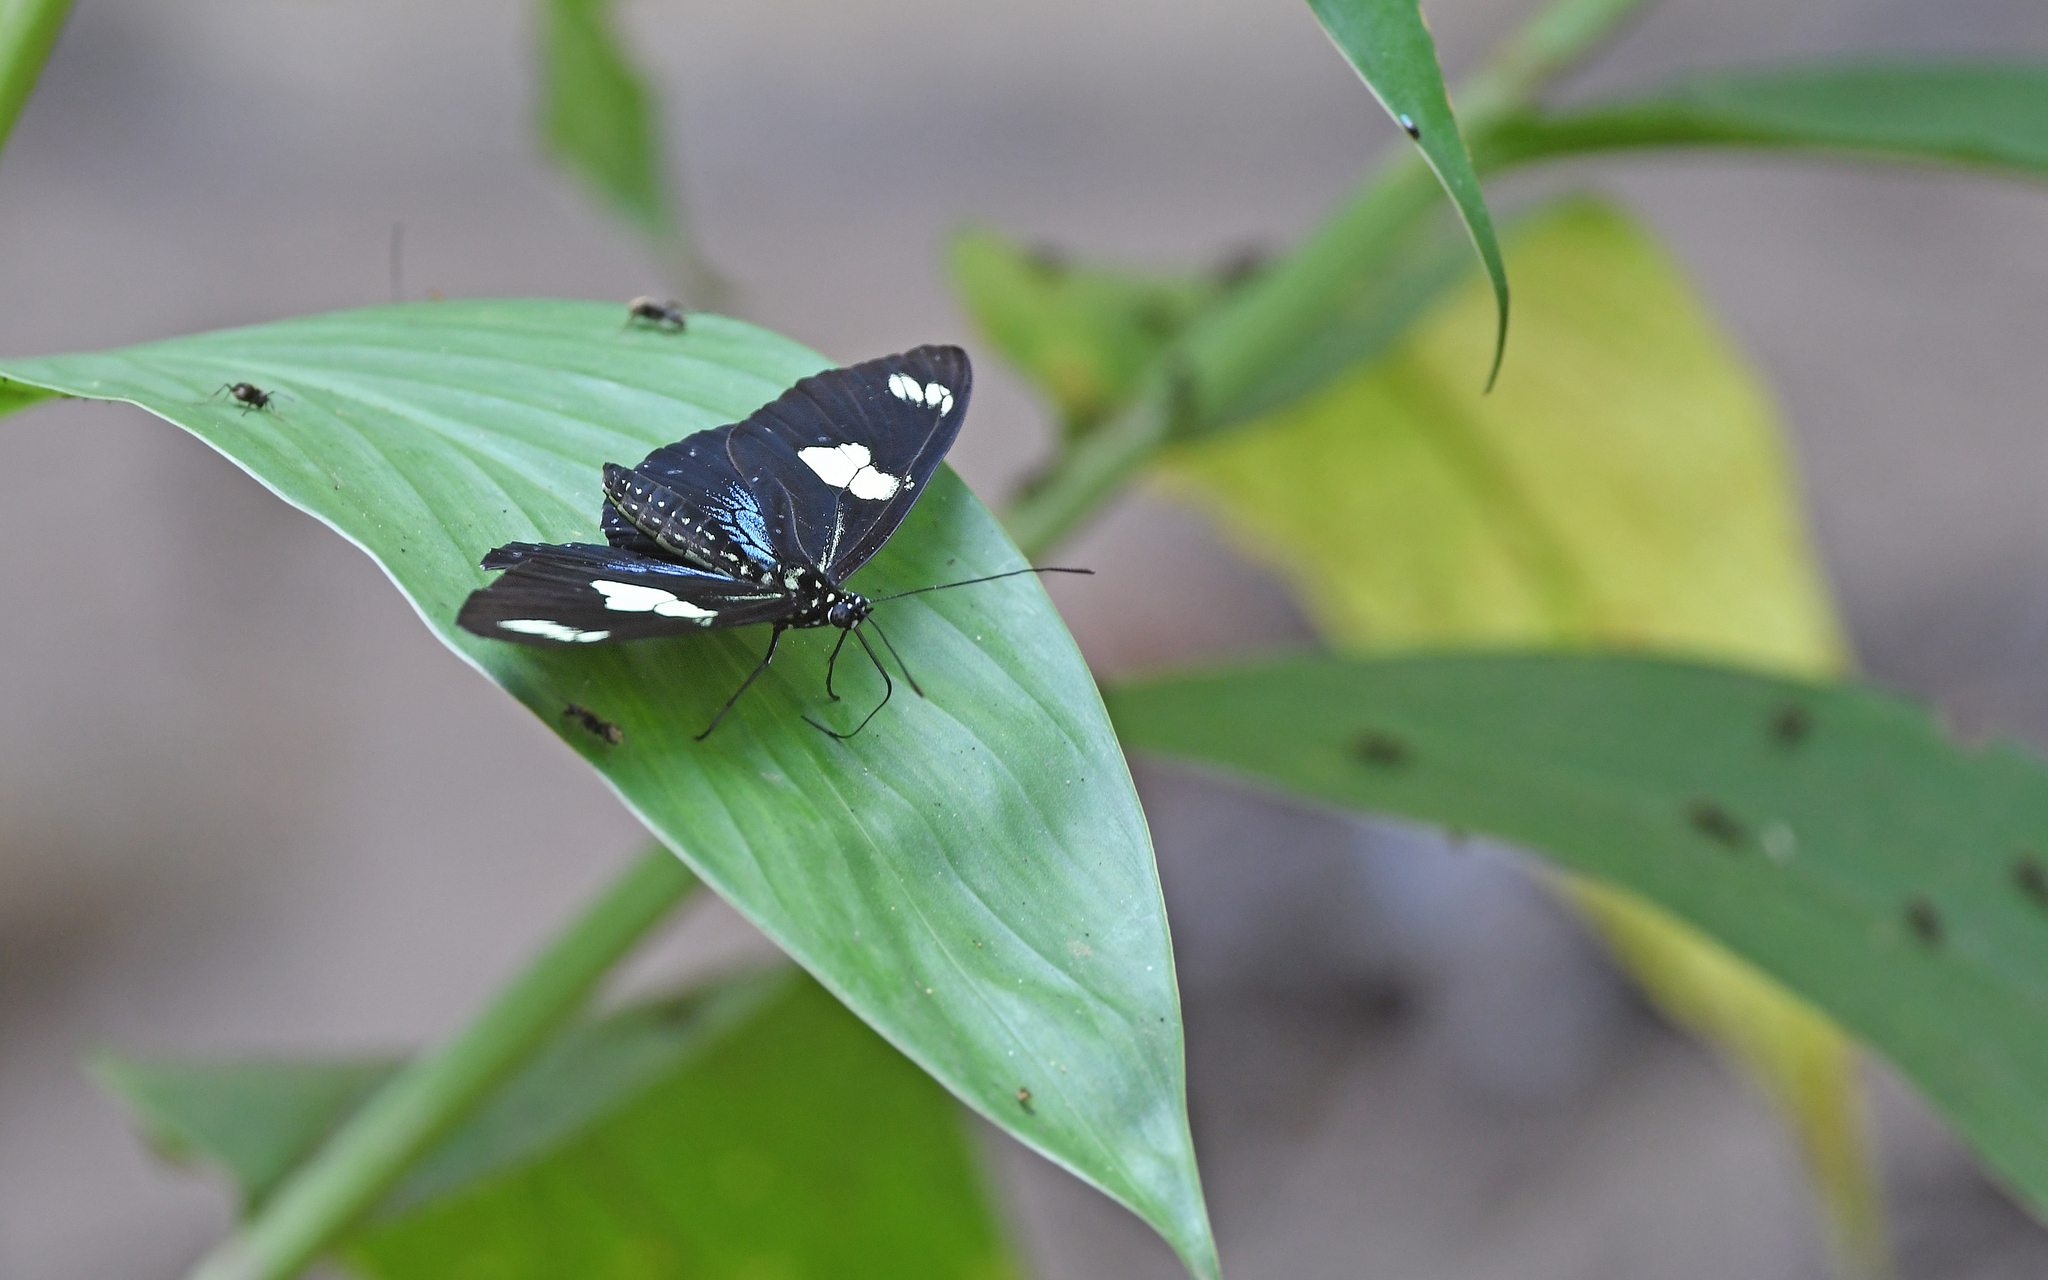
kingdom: Animalia
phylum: Arthropoda
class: Insecta
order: Lepidoptera
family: Nymphalidae
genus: Heliconius
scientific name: Heliconius doris
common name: Doris longwing
